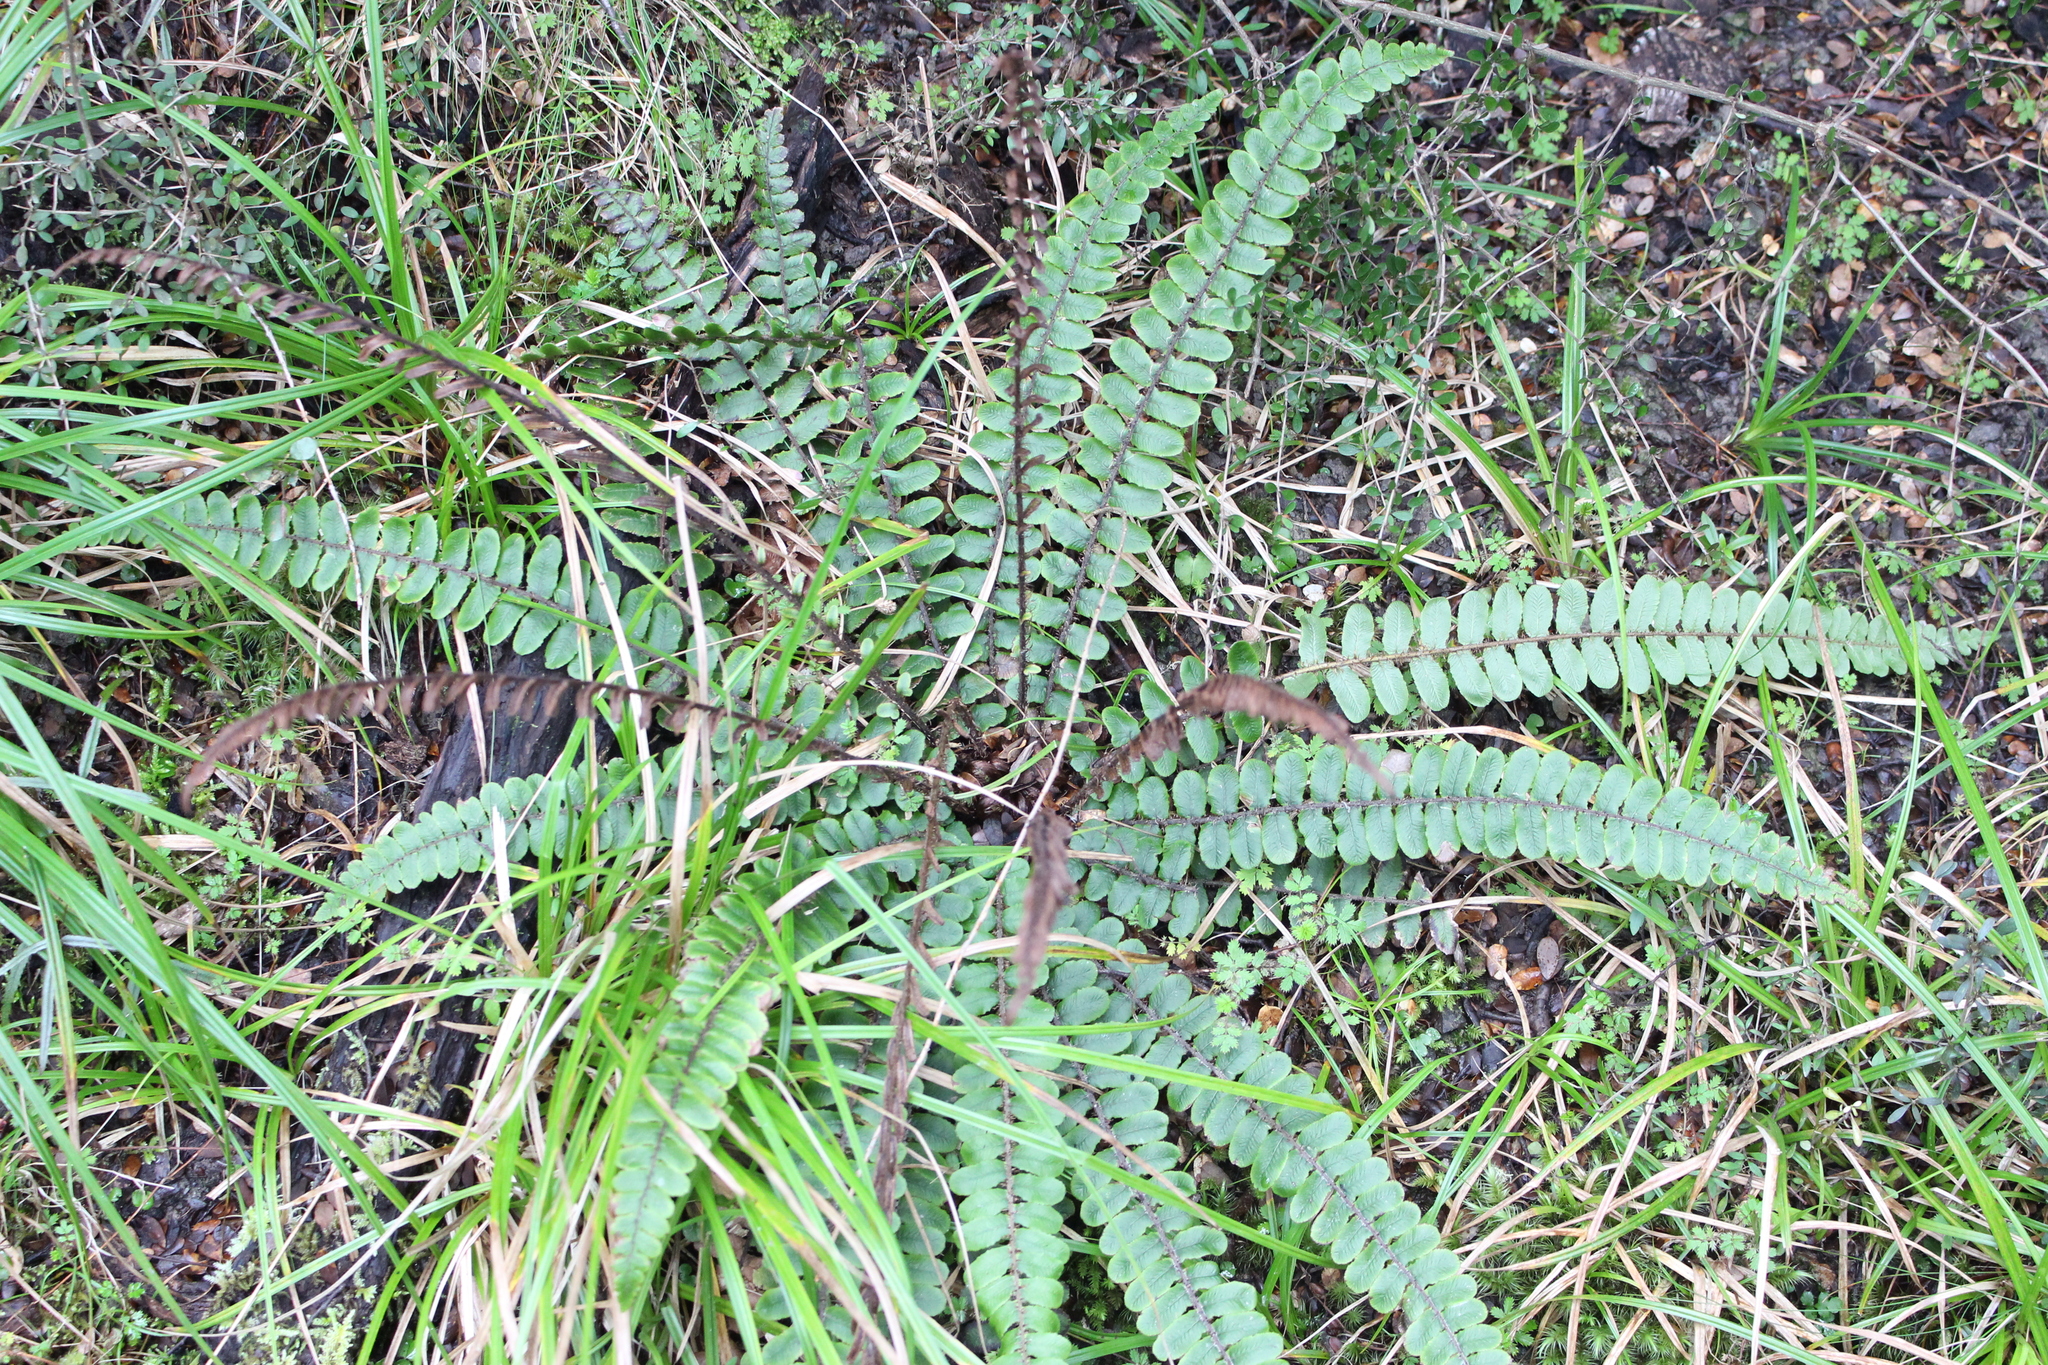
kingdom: Plantae
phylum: Tracheophyta
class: Polypodiopsida
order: Polypodiales
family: Blechnaceae
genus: Cranfillia
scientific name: Cranfillia fluviatilis
